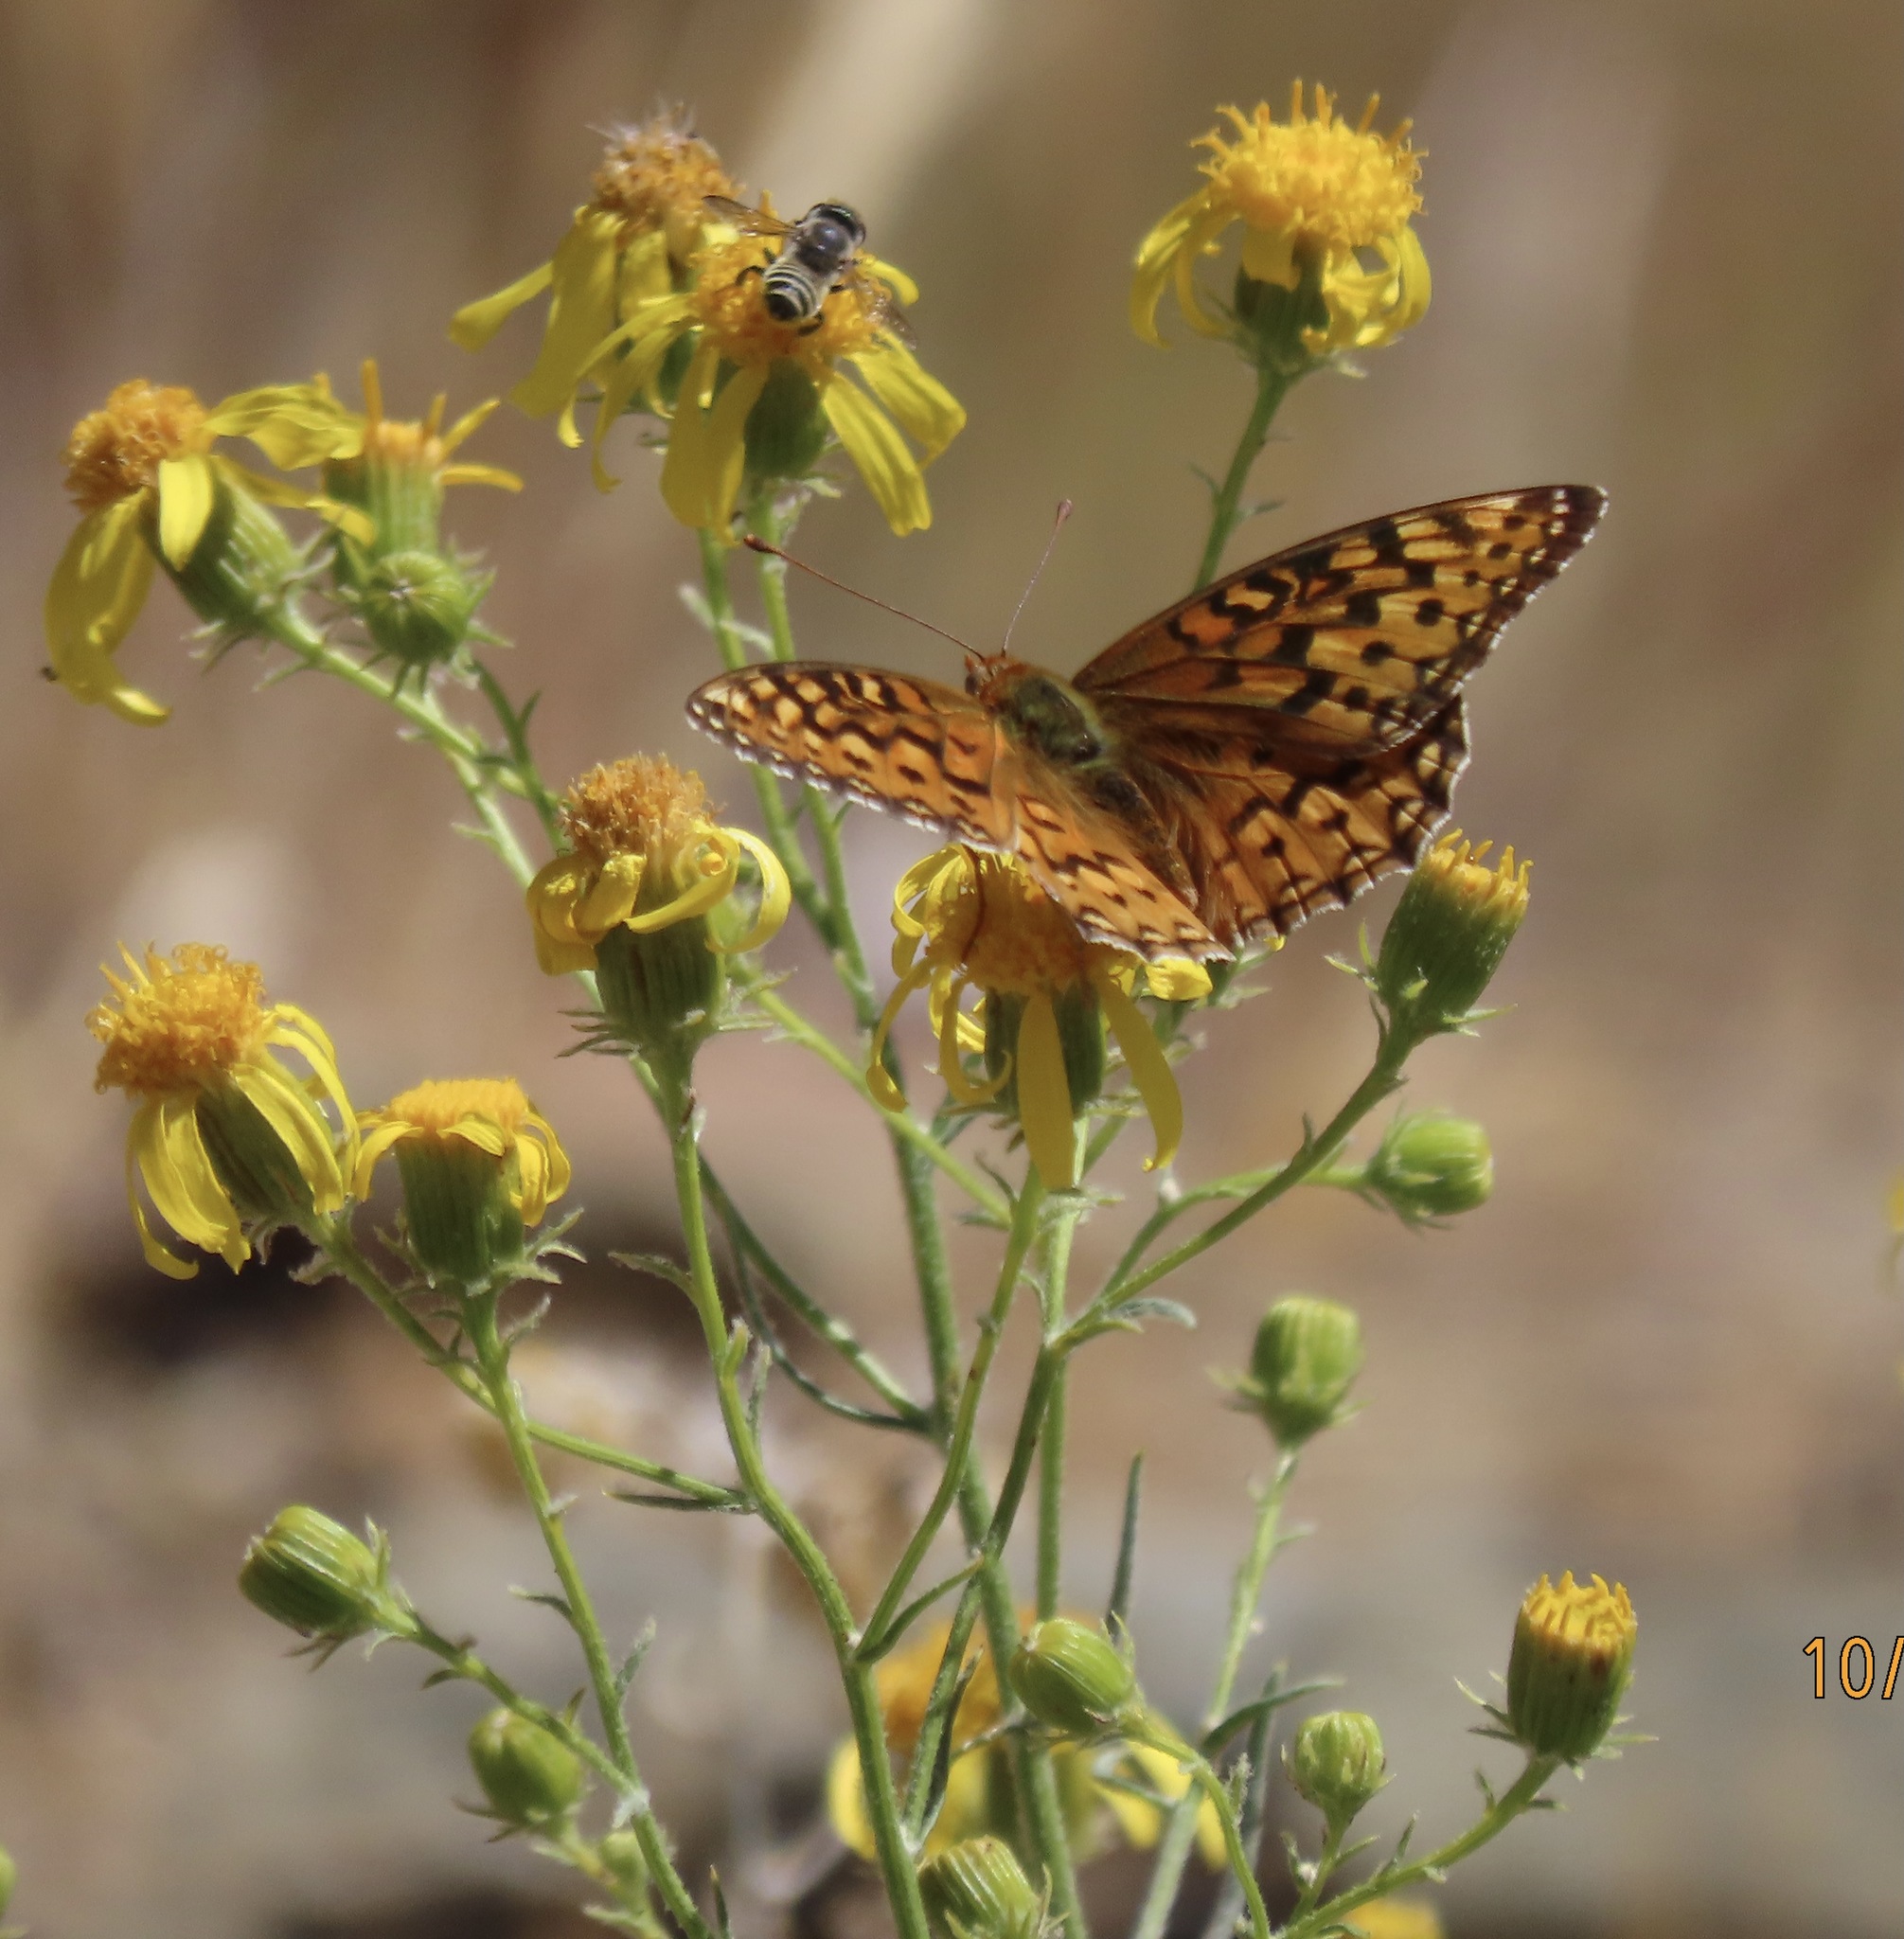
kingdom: Animalia
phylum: Arthropoda
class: Insecta
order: Lepidoptera
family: Nymphalidae
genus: Argynnis
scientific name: Argynnis coronis
